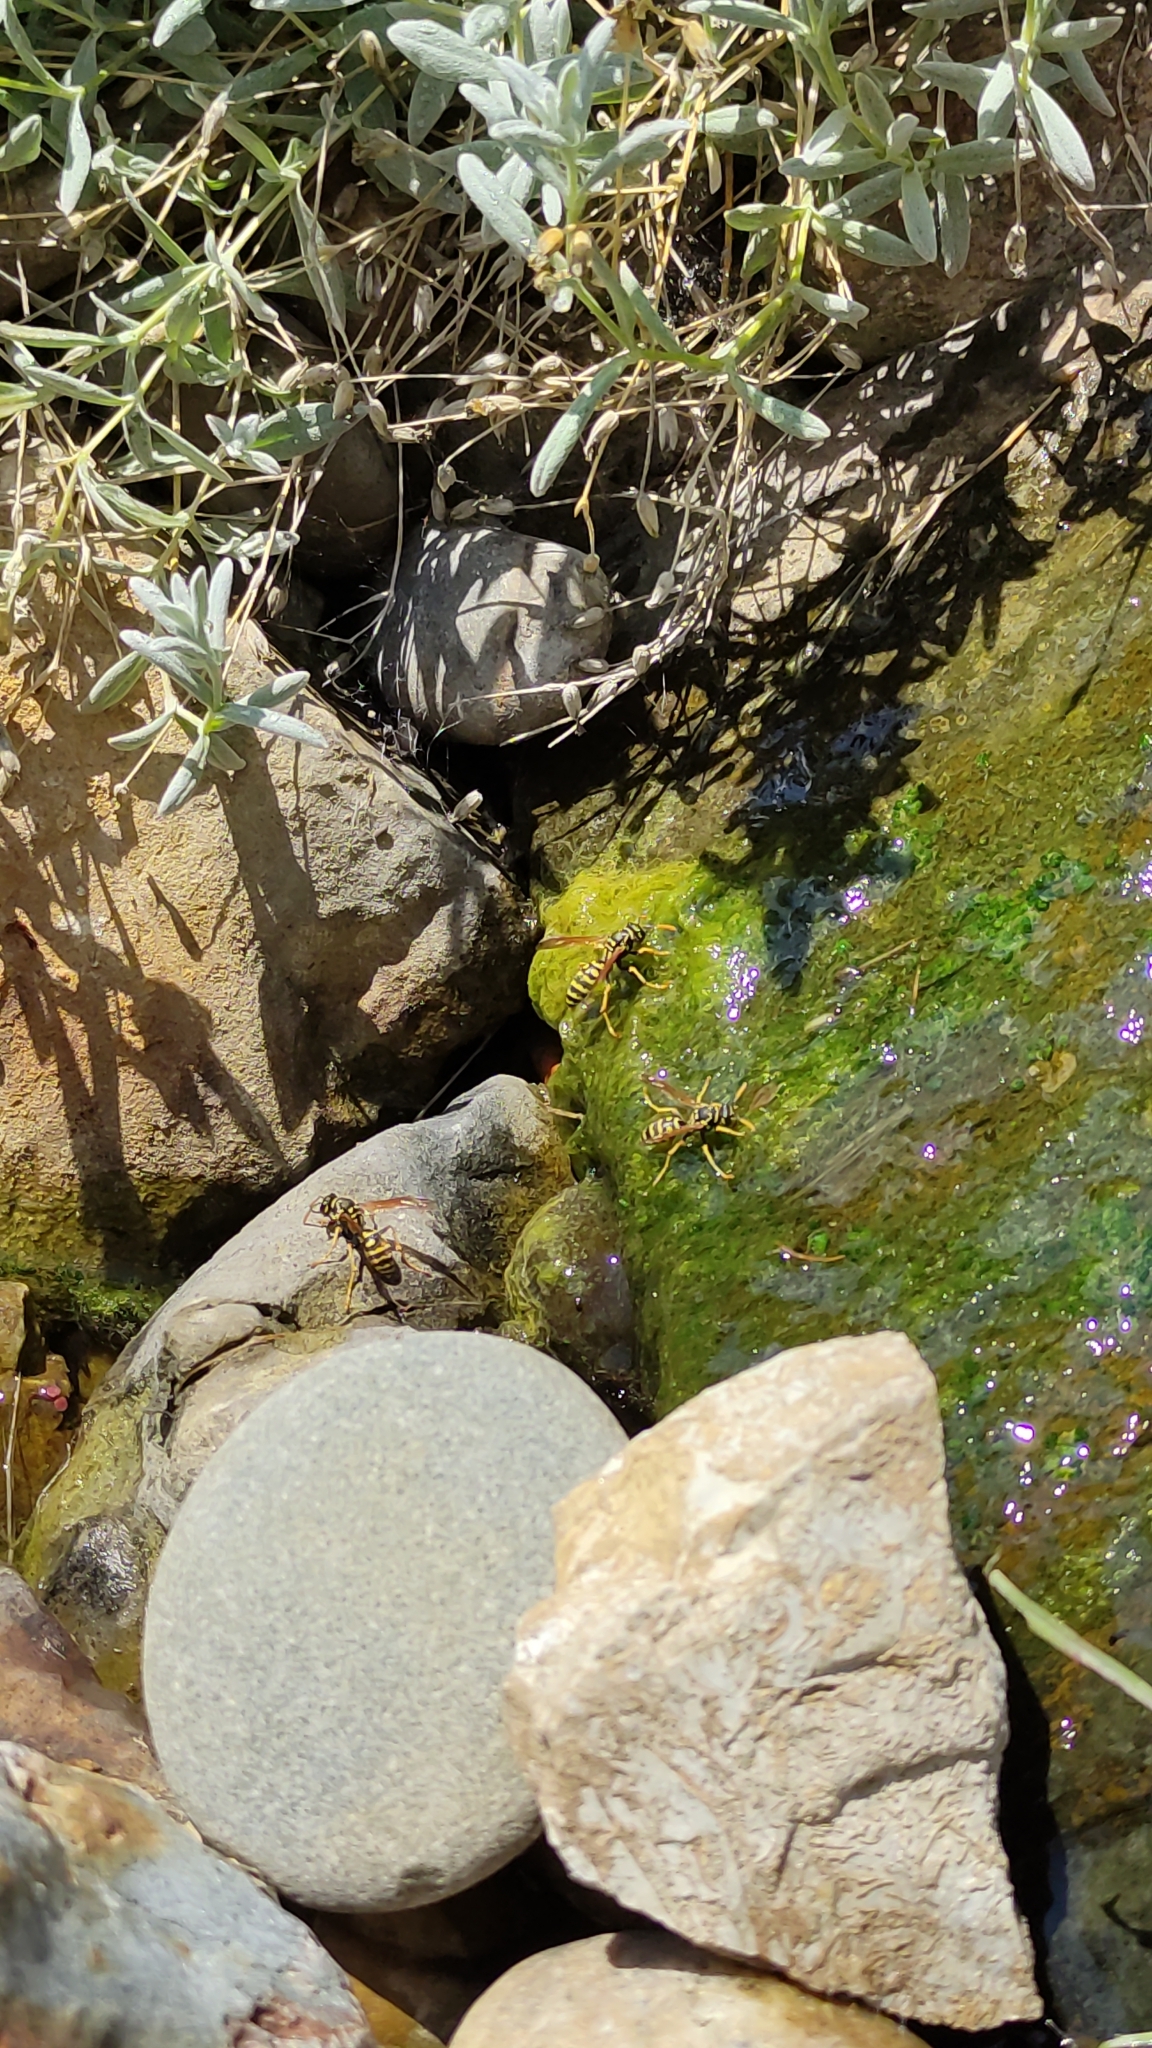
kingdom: Animalia
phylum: Arthropoda
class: Insecta
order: Hymenoptera
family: Eumenidae
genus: Polistes
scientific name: Polistes
